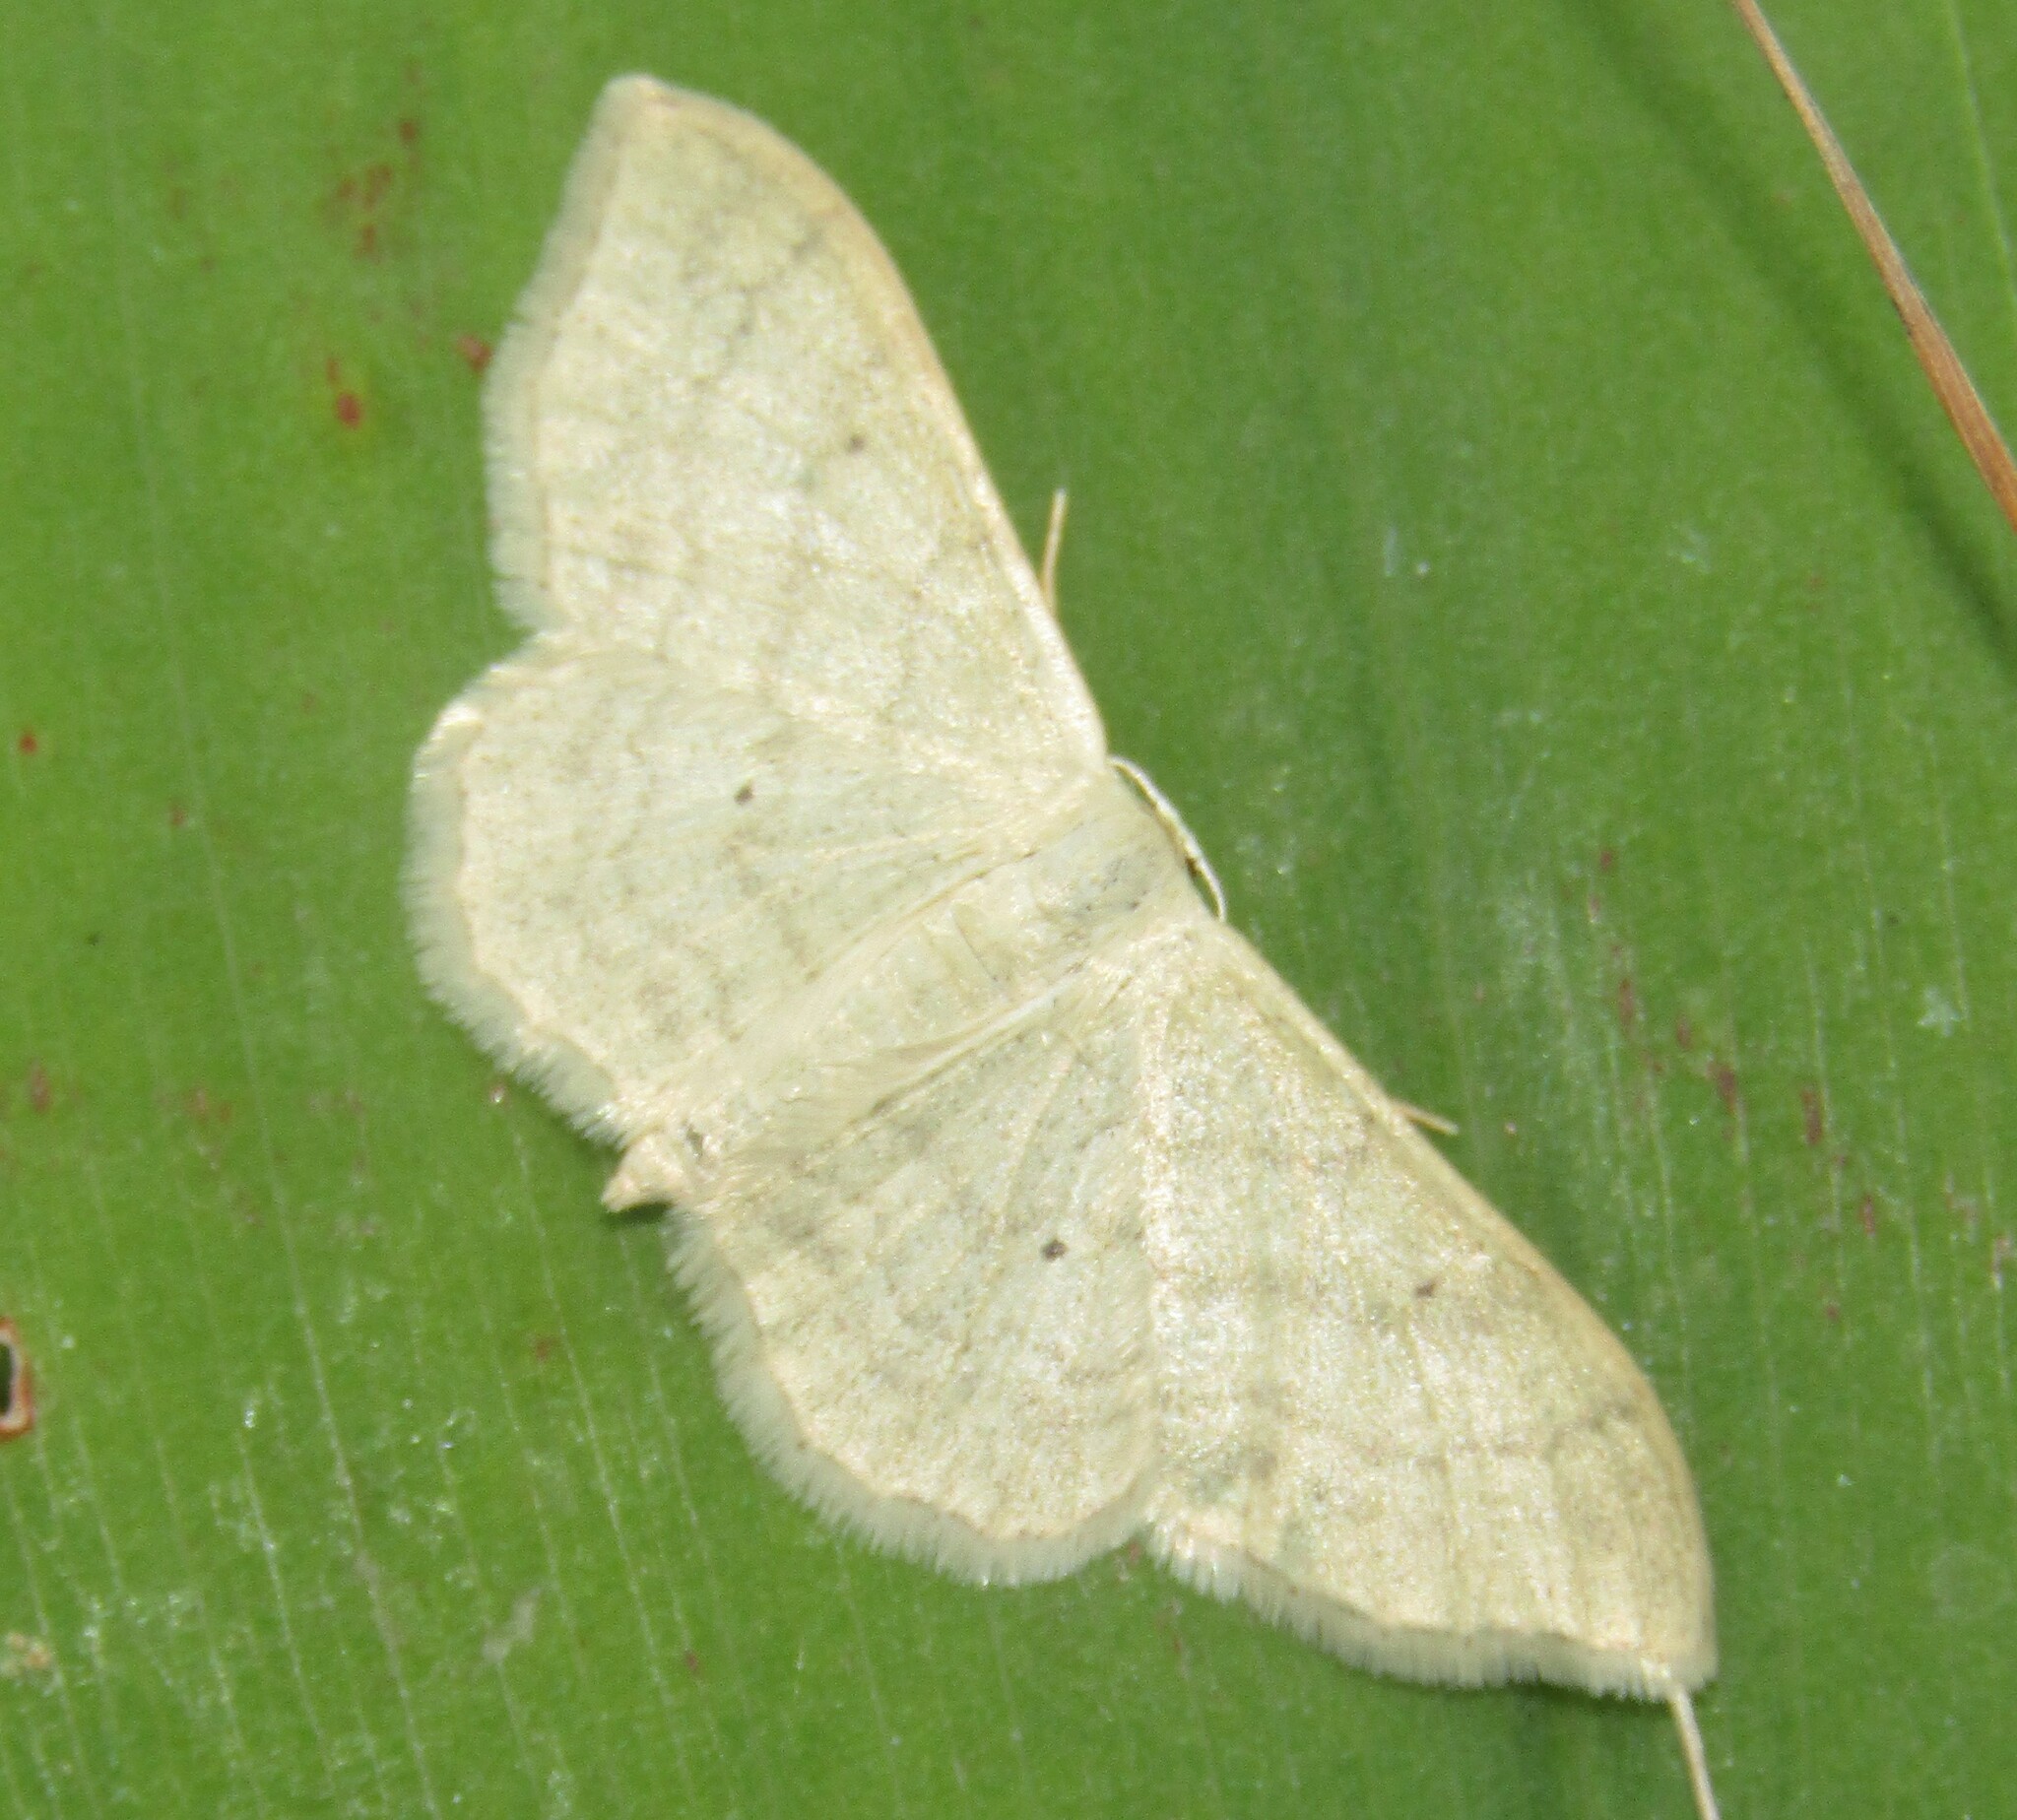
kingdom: Animalia
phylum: Arthropoda
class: Insecta
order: Lepidoptera
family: Geometridae
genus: Idaea
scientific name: Idaea straminata
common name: Plain wave
